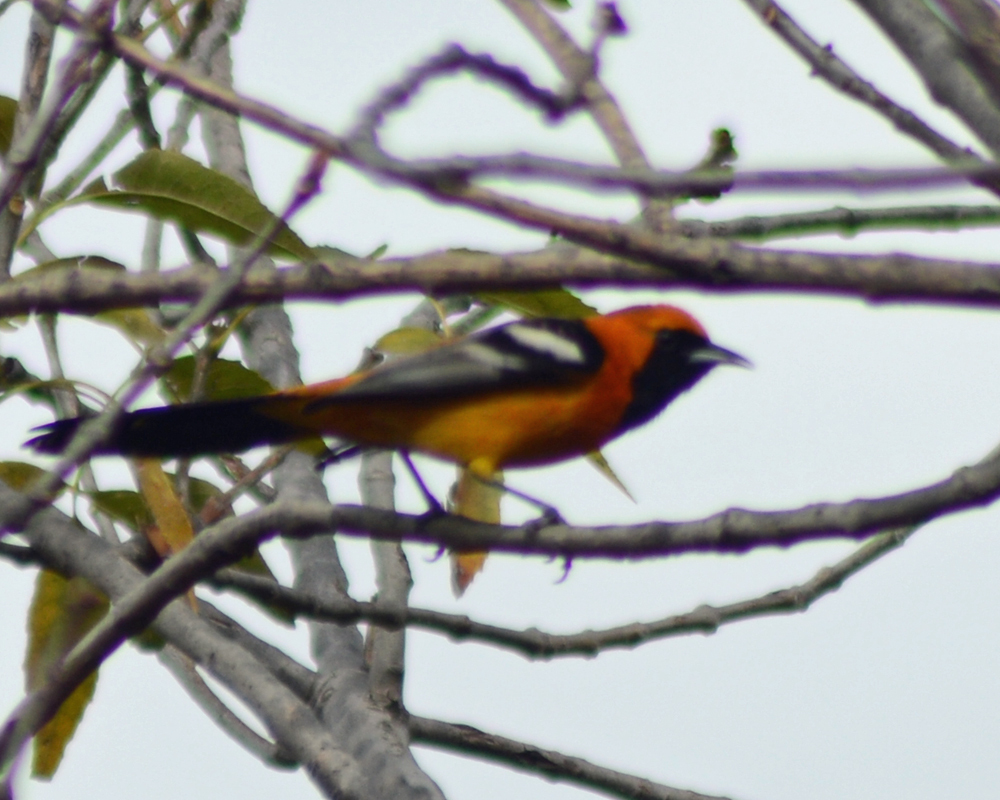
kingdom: Animalia
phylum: Chordata
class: Aves
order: Passeriformes
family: Icteridae
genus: Icterus
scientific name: Icterus cucullatus
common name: Hooded oriole
